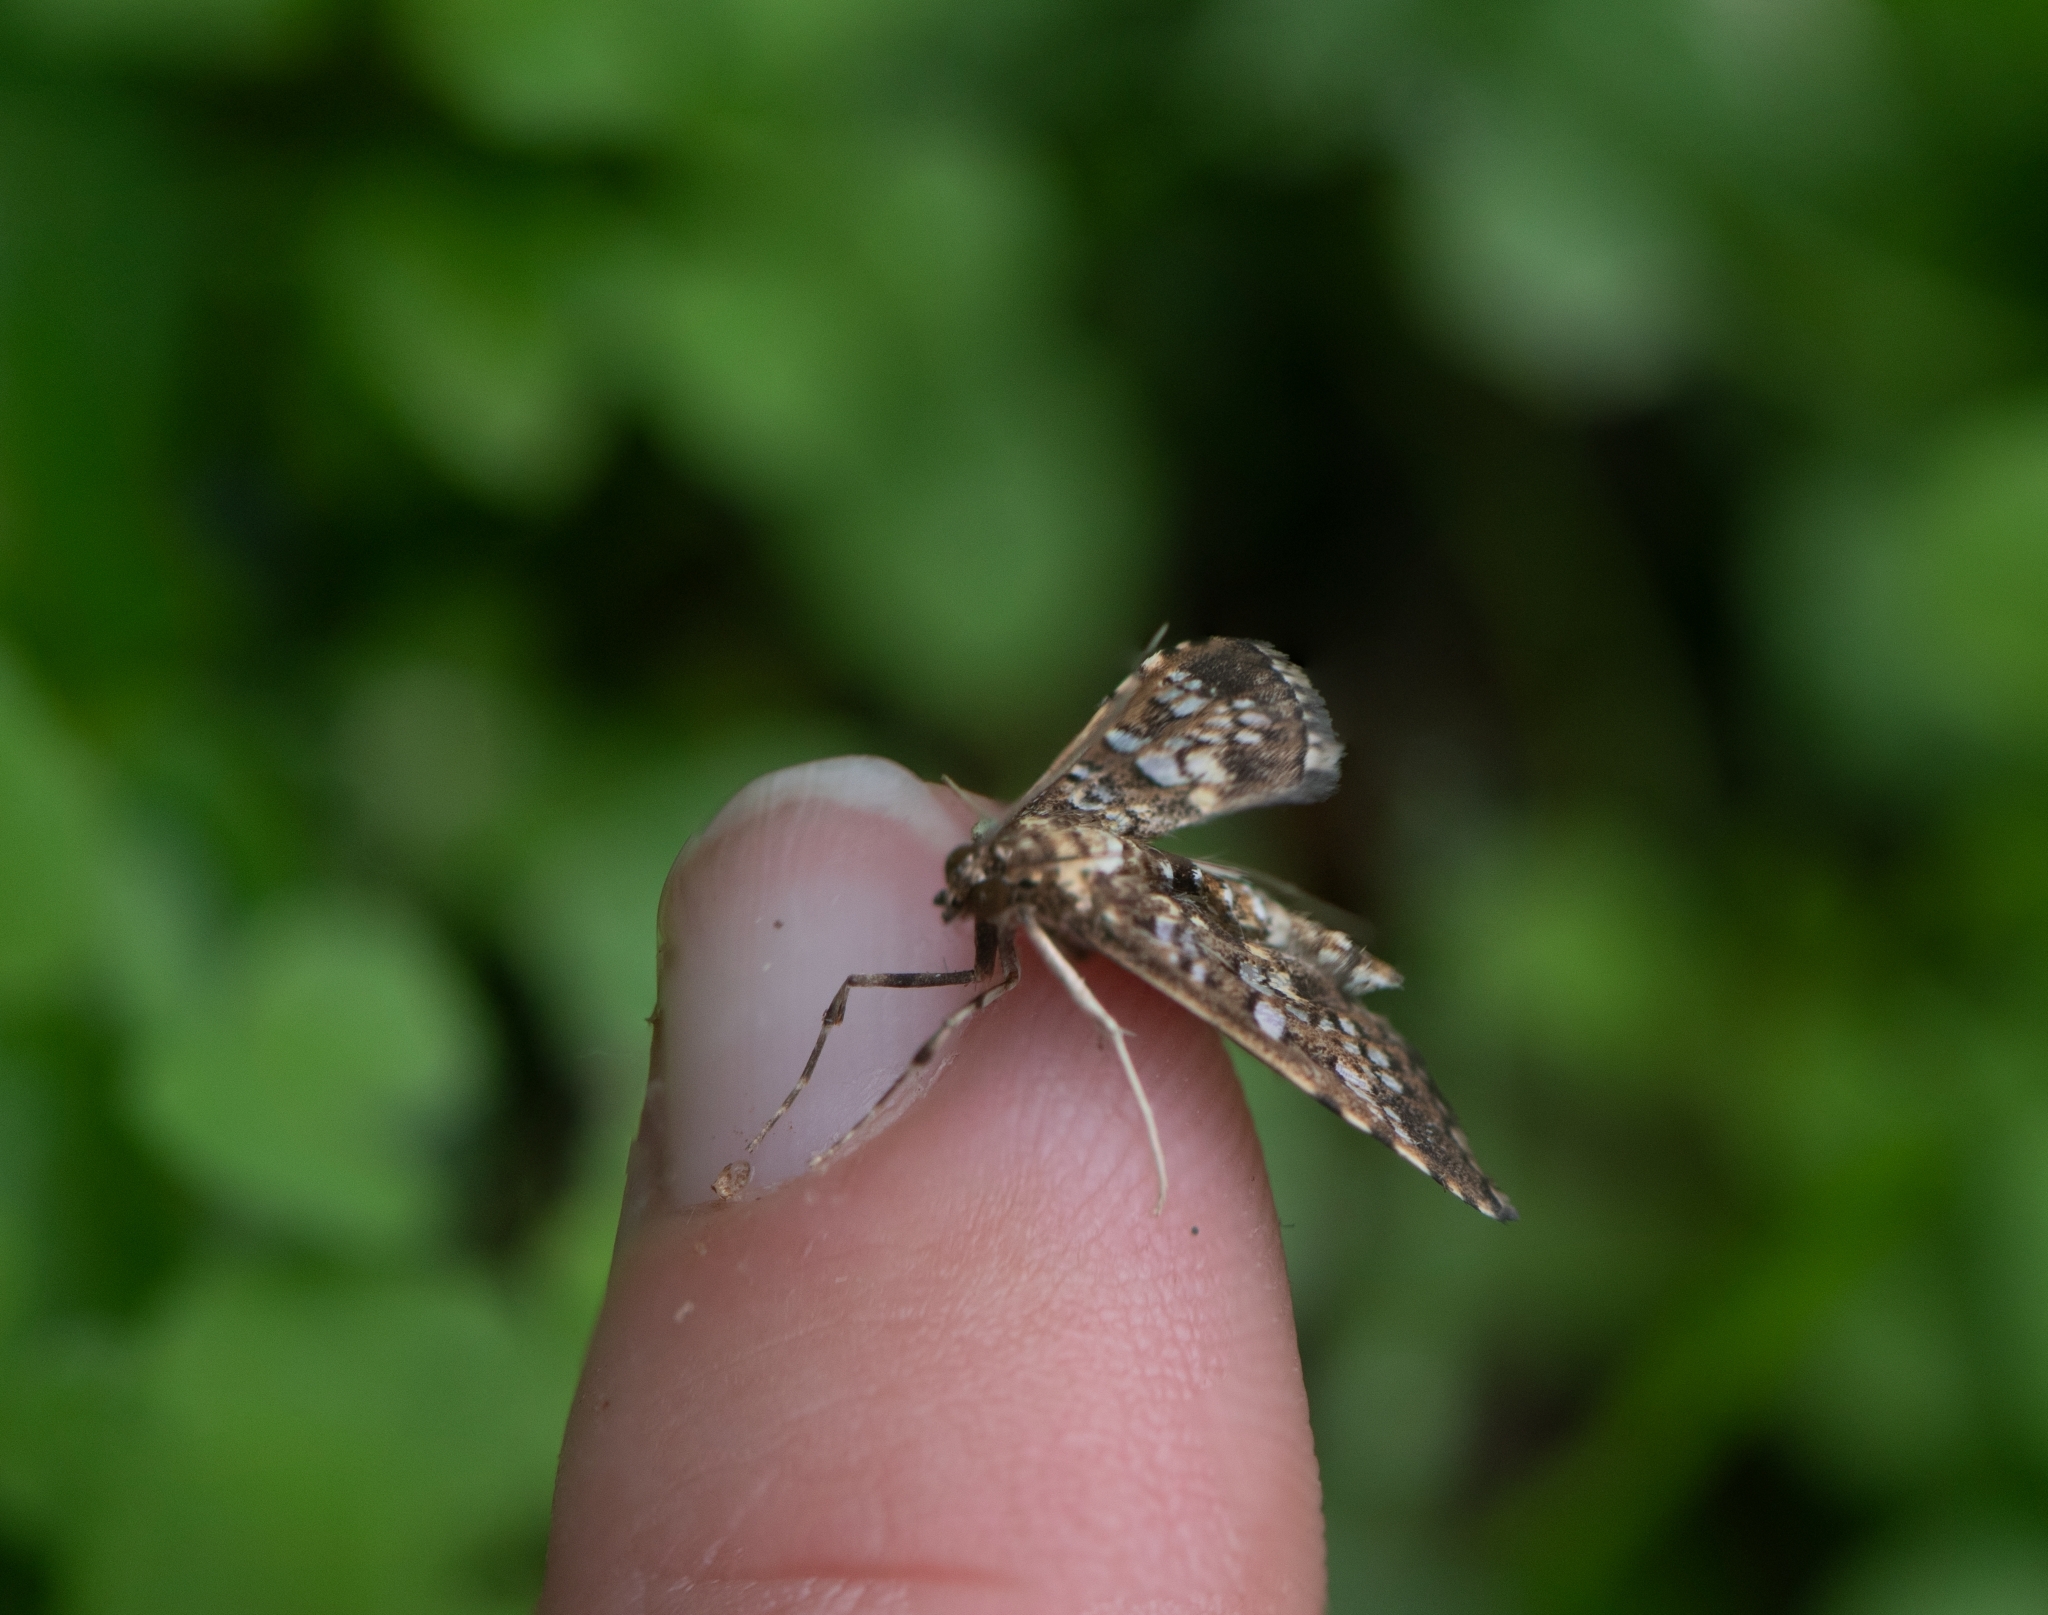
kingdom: Animalia
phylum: Arthropoda
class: Insecta
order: Lepidoptera
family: Crambidae
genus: Samea
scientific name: Samea ecclesialis
